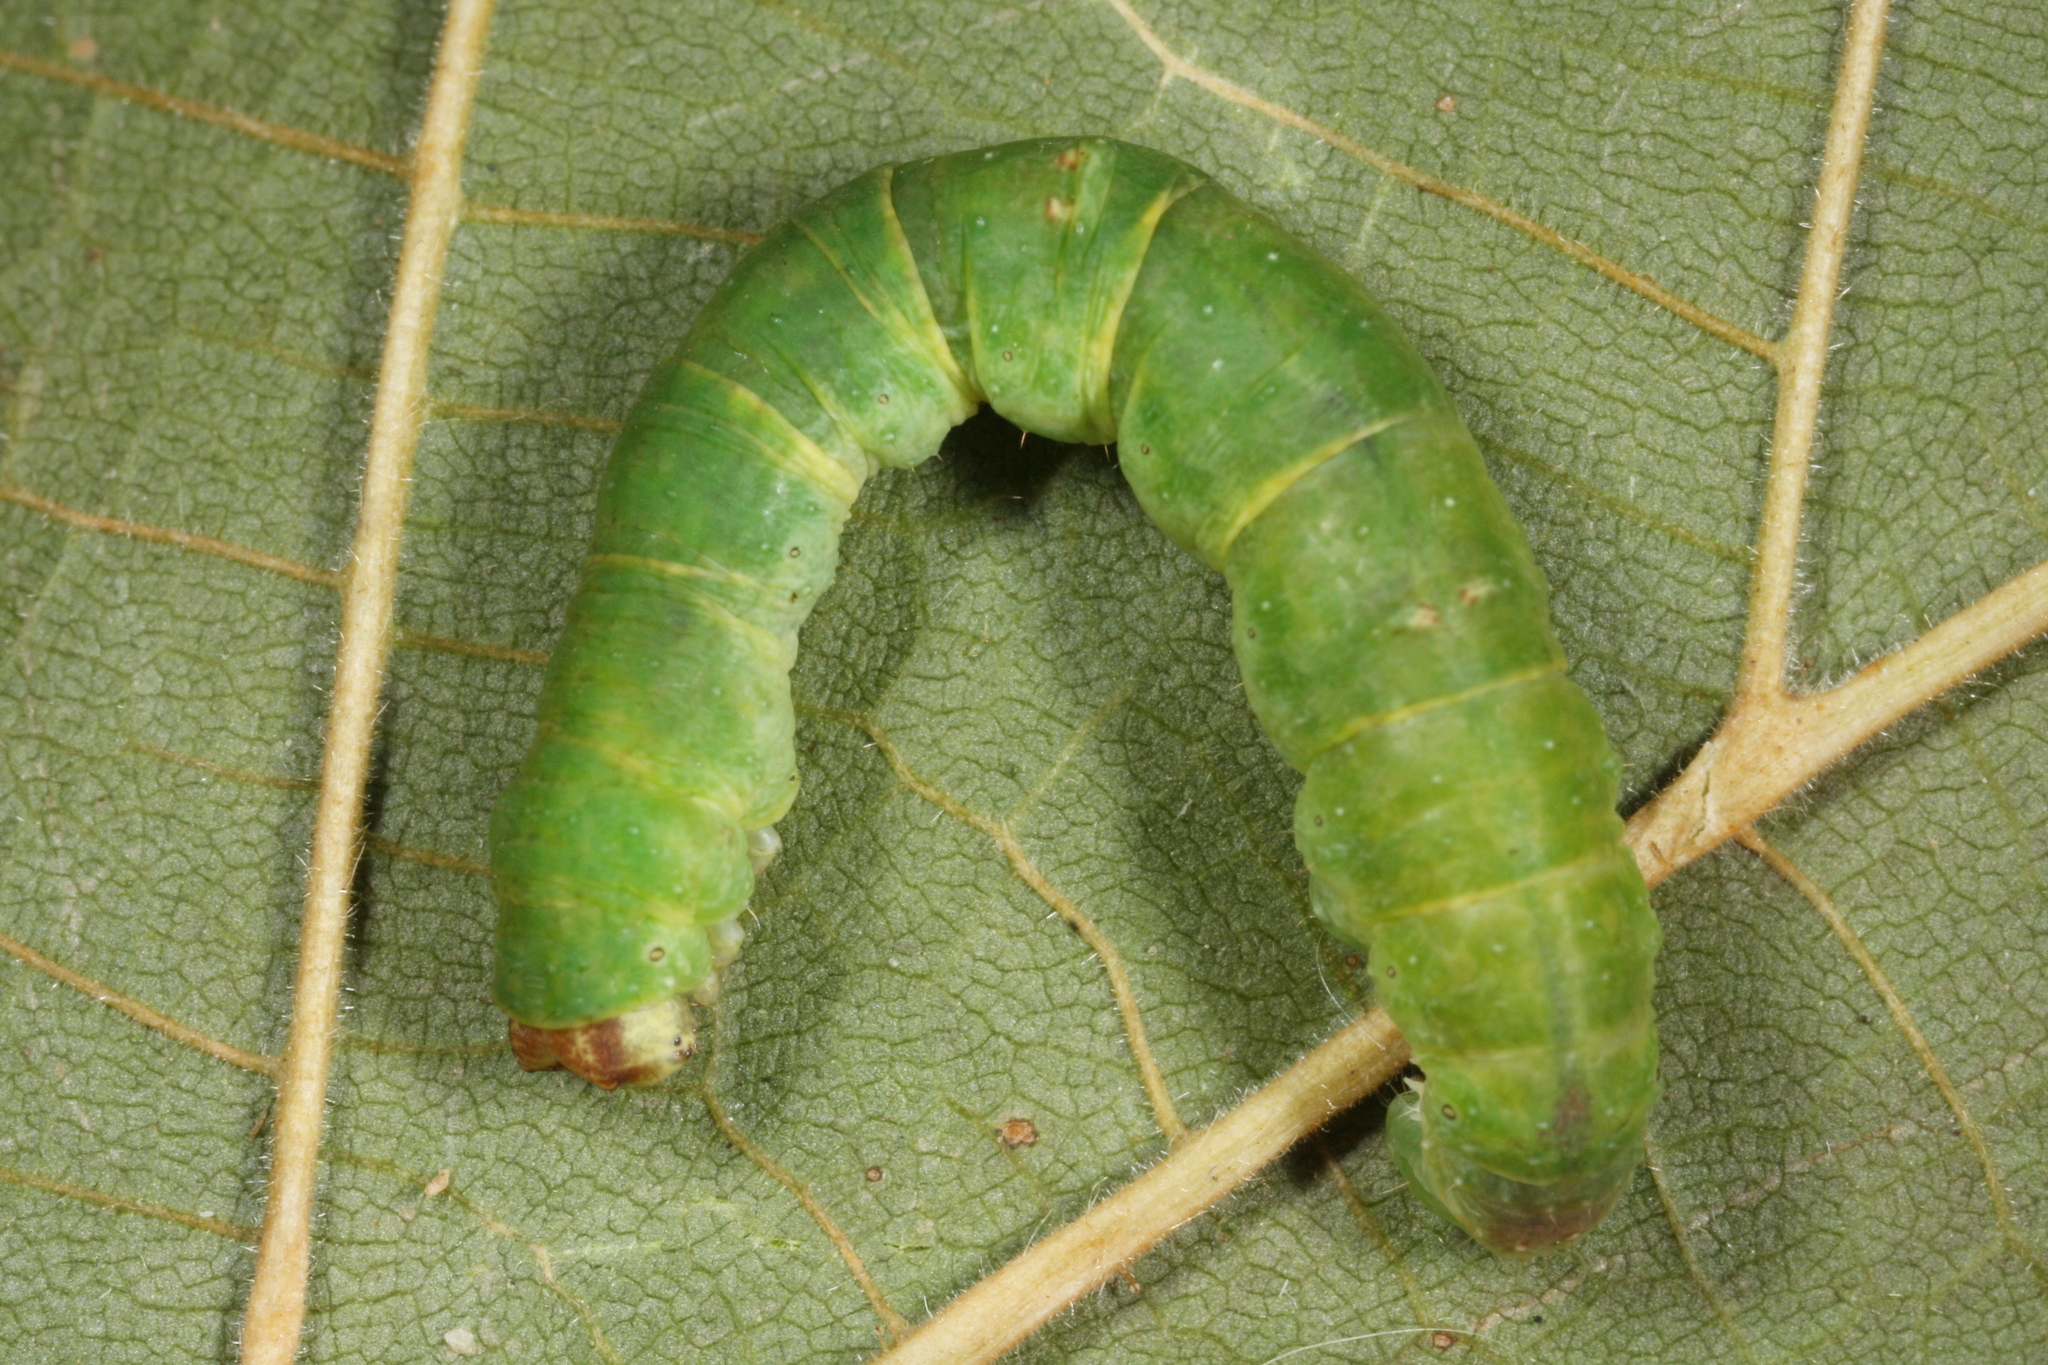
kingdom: Animalia
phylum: Arthropoda
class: Insecta
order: Lepidoptera
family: Geometridae
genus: Opisthograptis
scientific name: Opisthograptis luteolata
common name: Brimstone moth
